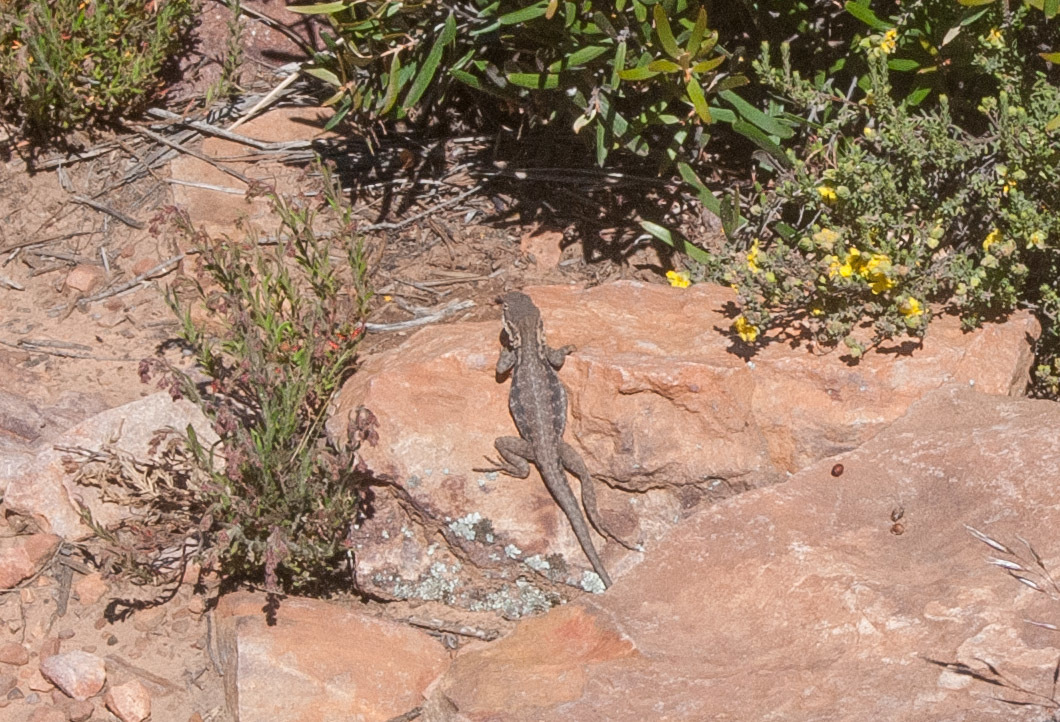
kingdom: Animalia
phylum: Chordata
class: Squamata
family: Agamidae
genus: Ctenophorus
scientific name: Ctenophorus modestus
